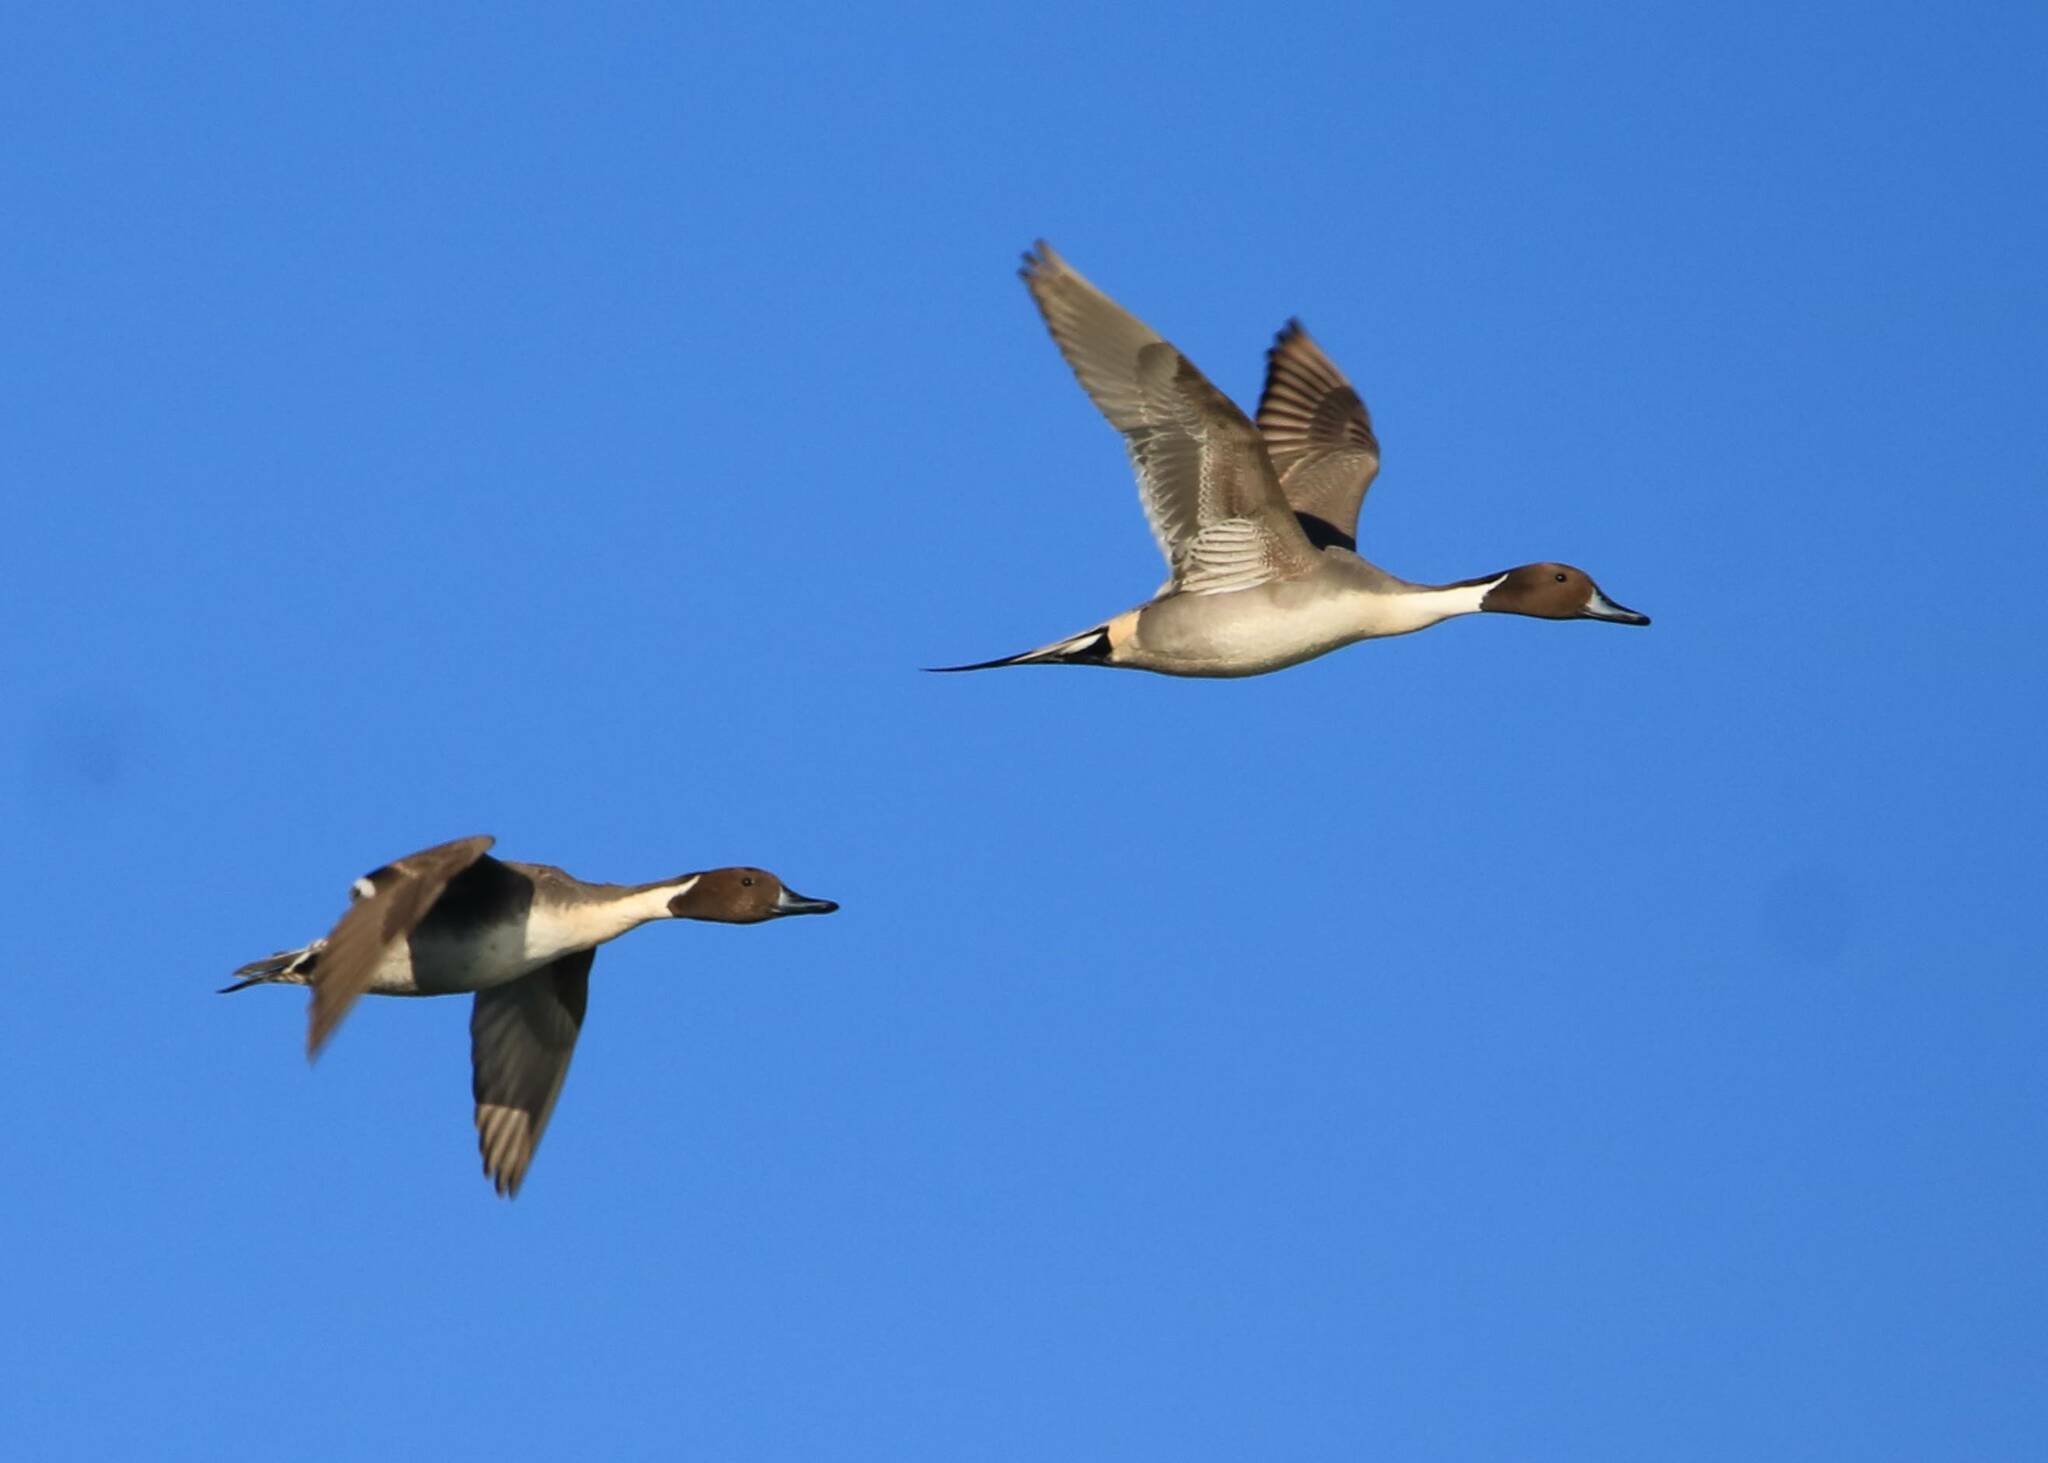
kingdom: Animalia
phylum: Chordata
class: Aves
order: Anseriformes
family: Anatidae
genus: Anas
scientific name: Anas acuta
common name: Northern pintail
